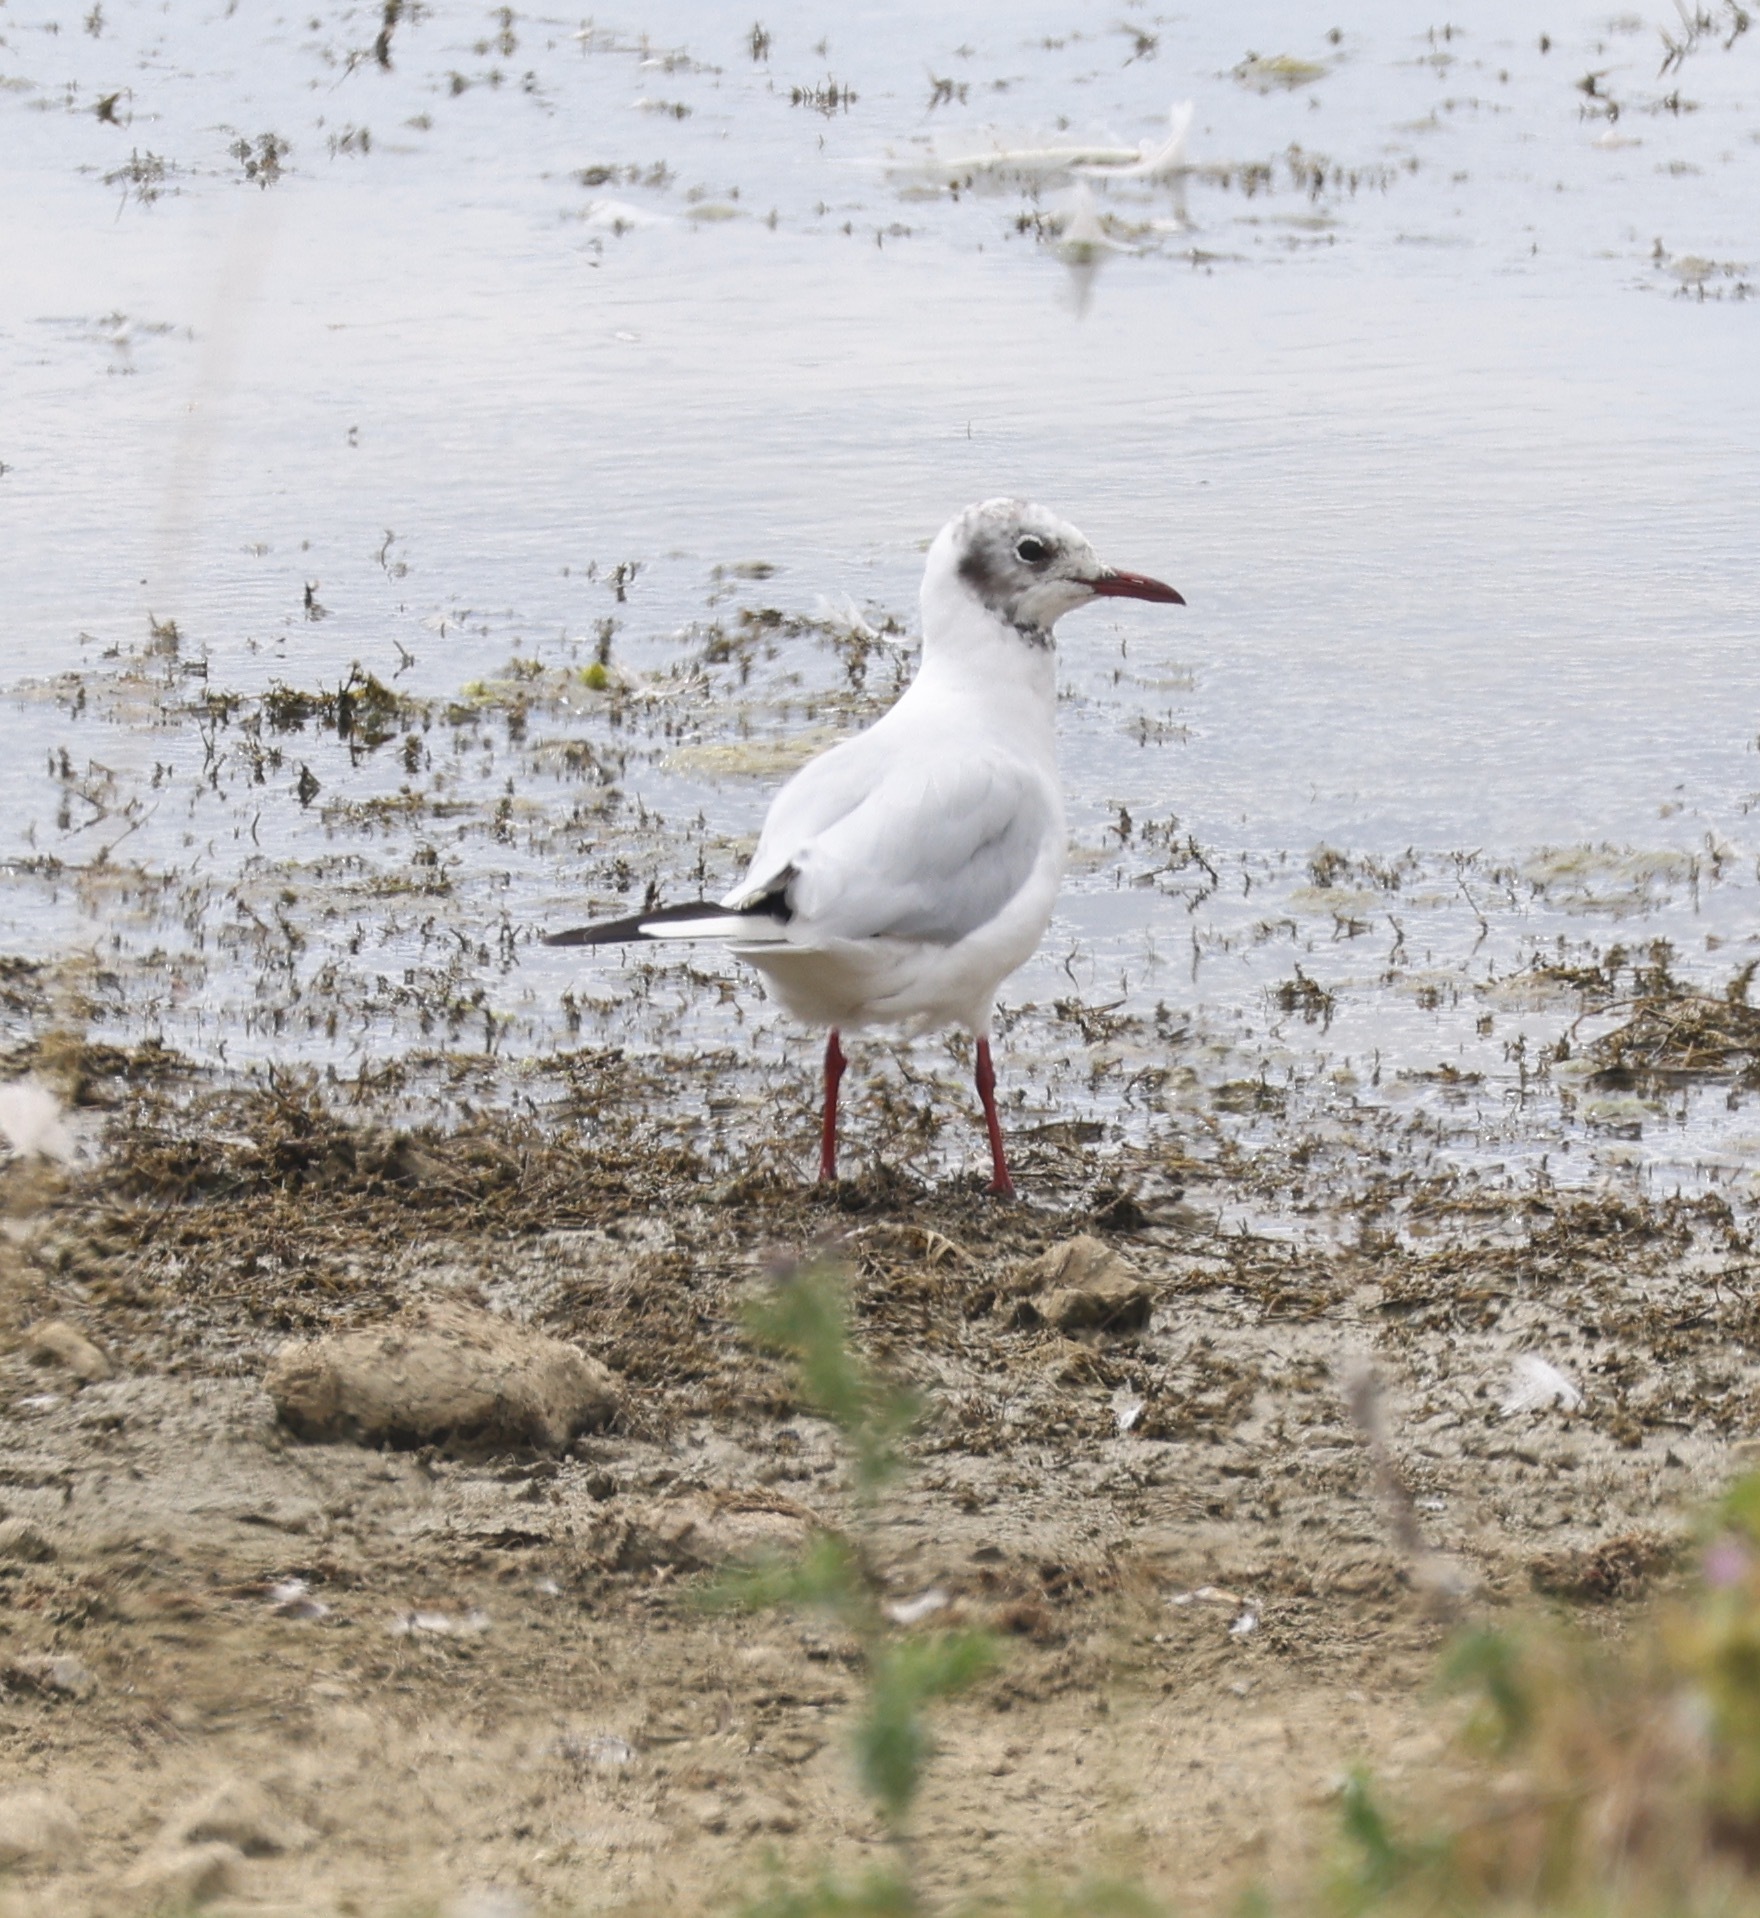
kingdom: Animalia
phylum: Chordata
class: Aves
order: Charadriiformes
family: Laridae
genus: Chroicocephalus
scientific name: Chroicocephalus ridibundus
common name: Black-headed gull
